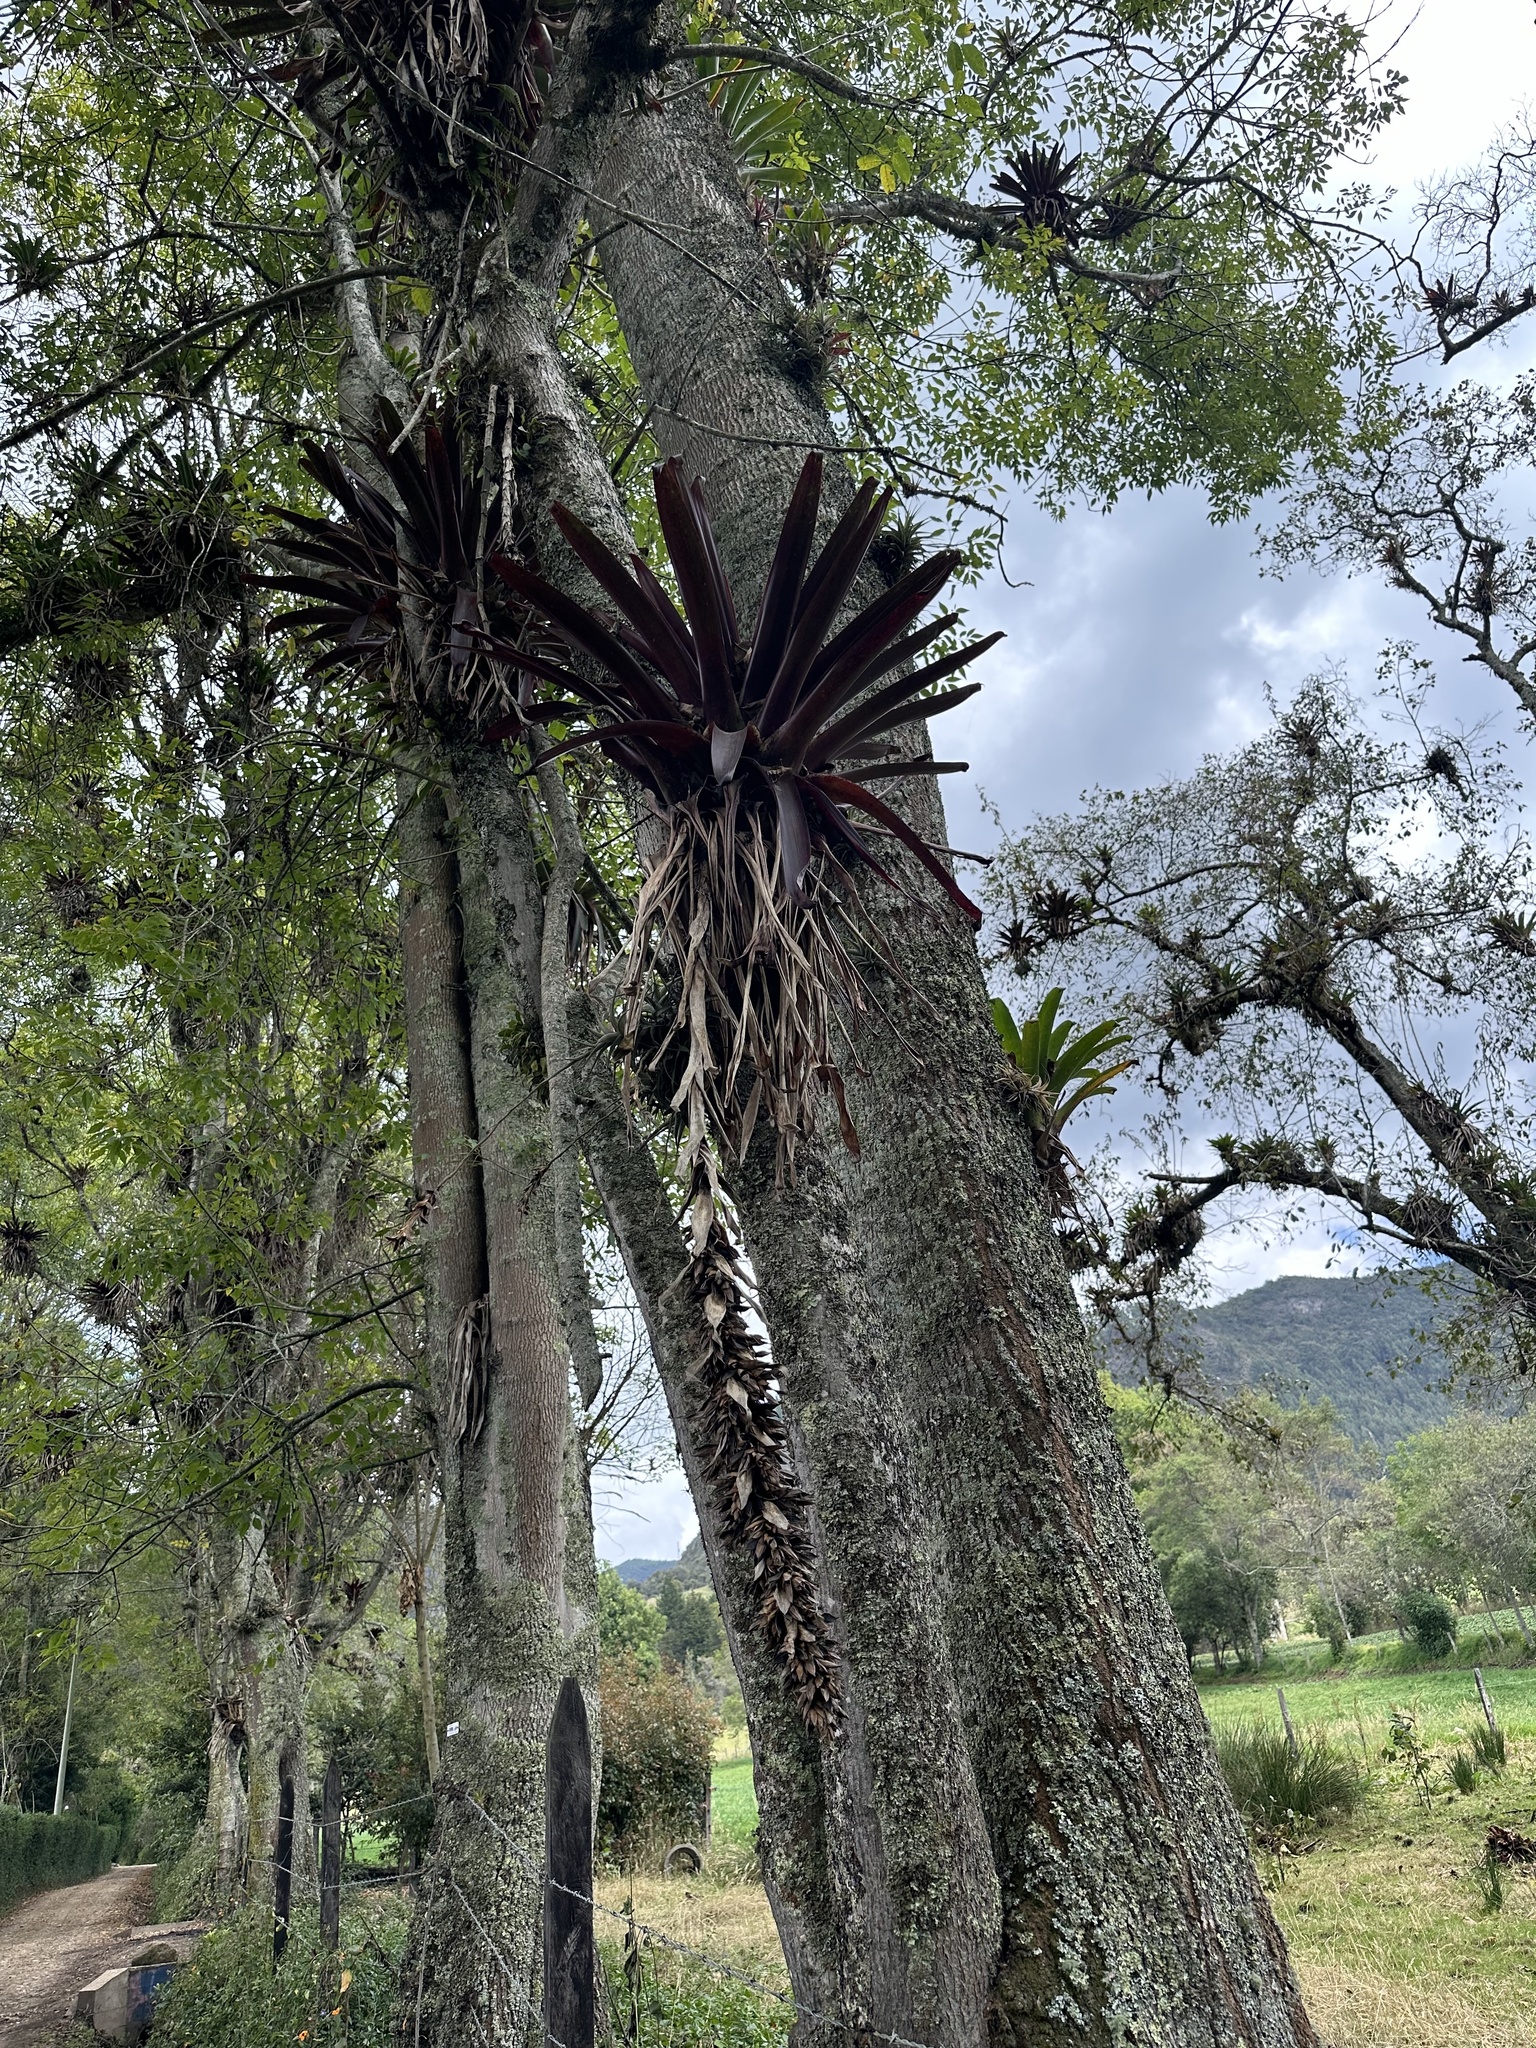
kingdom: Plantae
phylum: Tracheophyta
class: Liliopsida
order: Poales
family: Bromeliaceae
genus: Tillandsia
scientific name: Tillandsia pastensis
